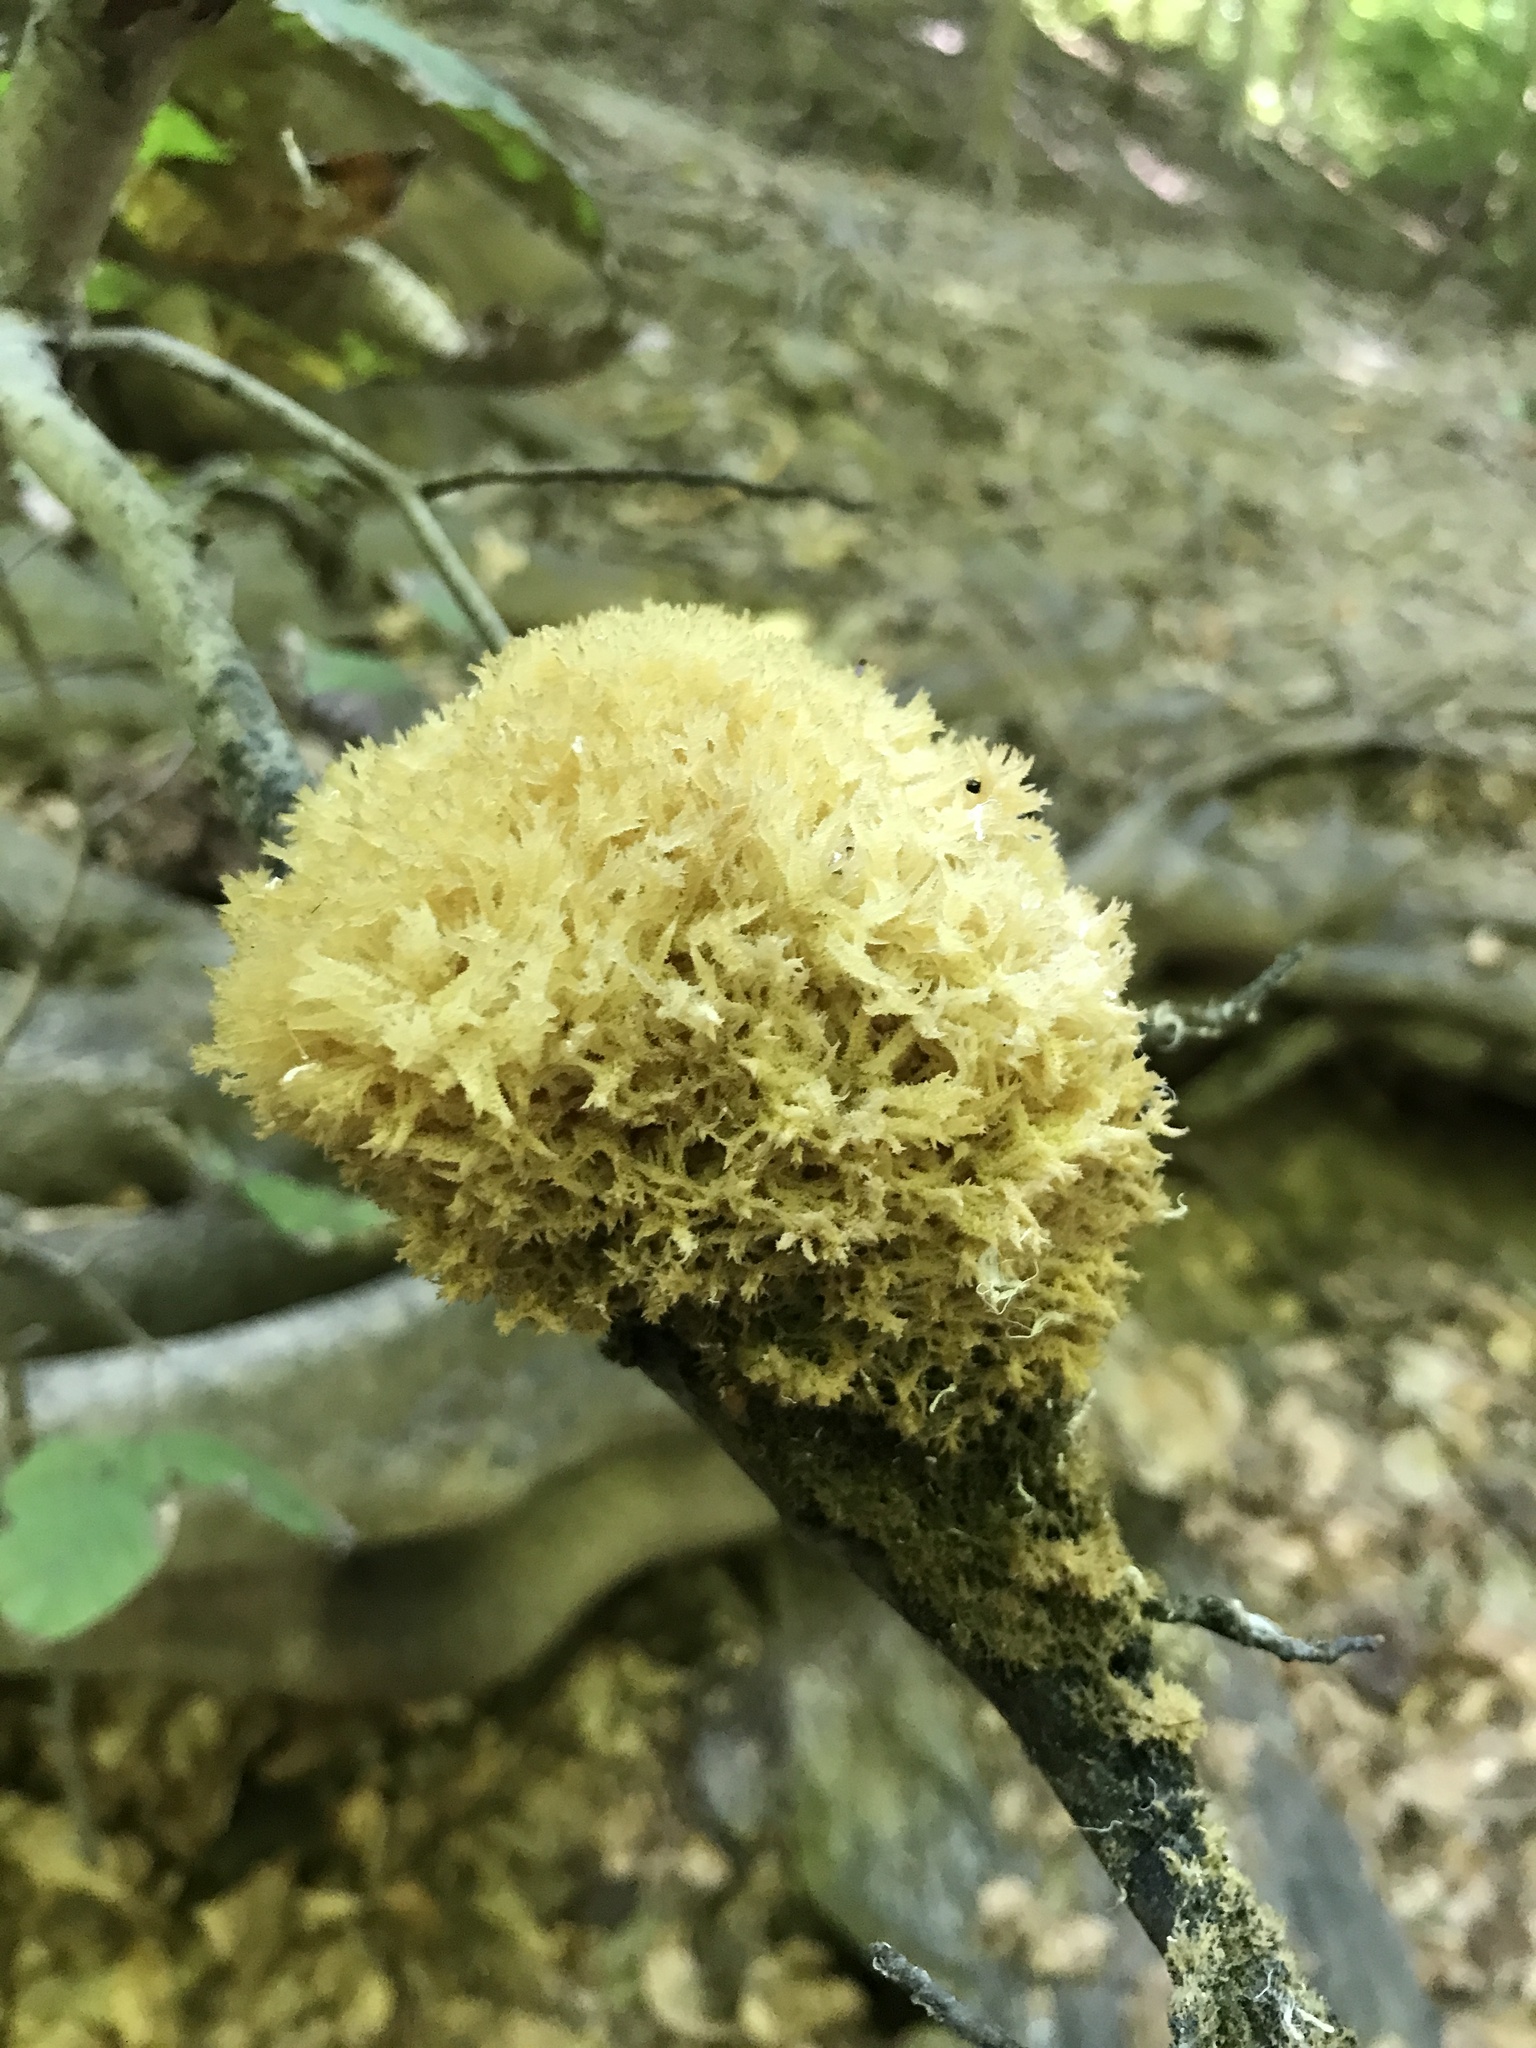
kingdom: Fungi
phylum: Ascomycota
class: Dothideomycetes
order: Capnodiales
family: Capnodiaceae
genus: Scorias
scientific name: Scorias spongiosa
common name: Black sooty mold
